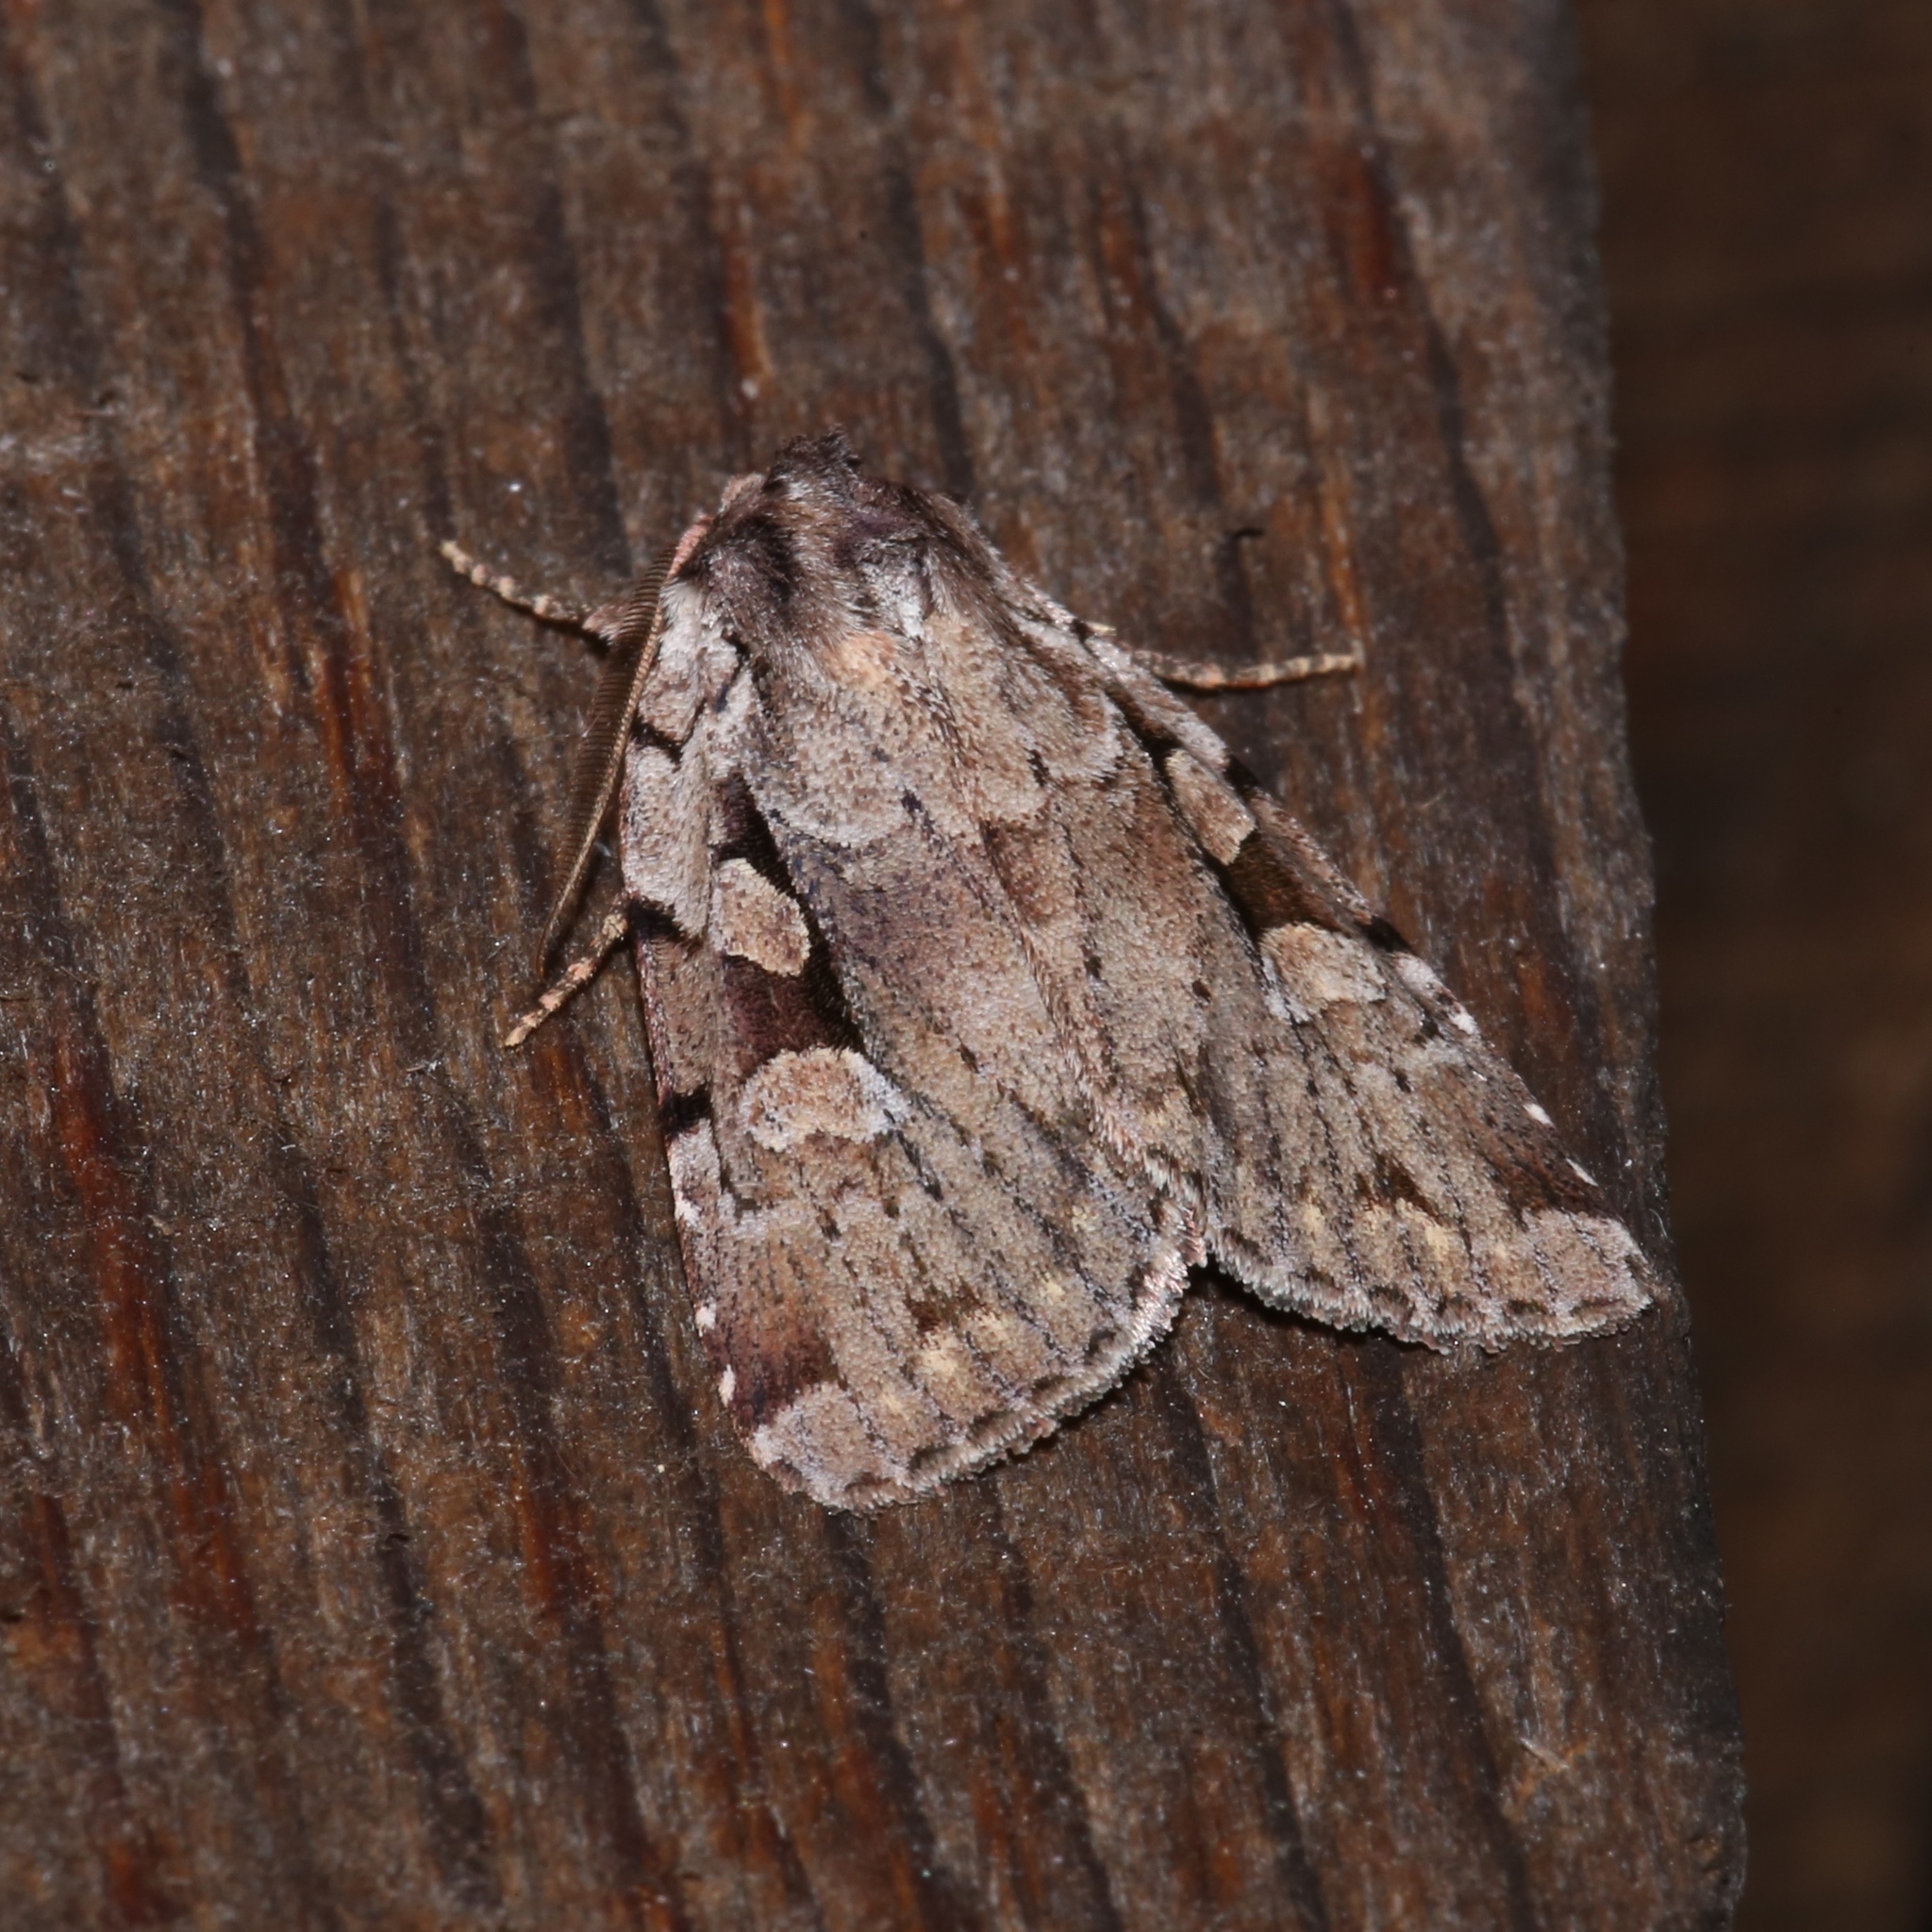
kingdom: Animalia
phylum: Arthropoda
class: Insecta
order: Lepidoptera
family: Noctuidae
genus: Xestia
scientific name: Xestia badicollis
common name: Northern variable dart
